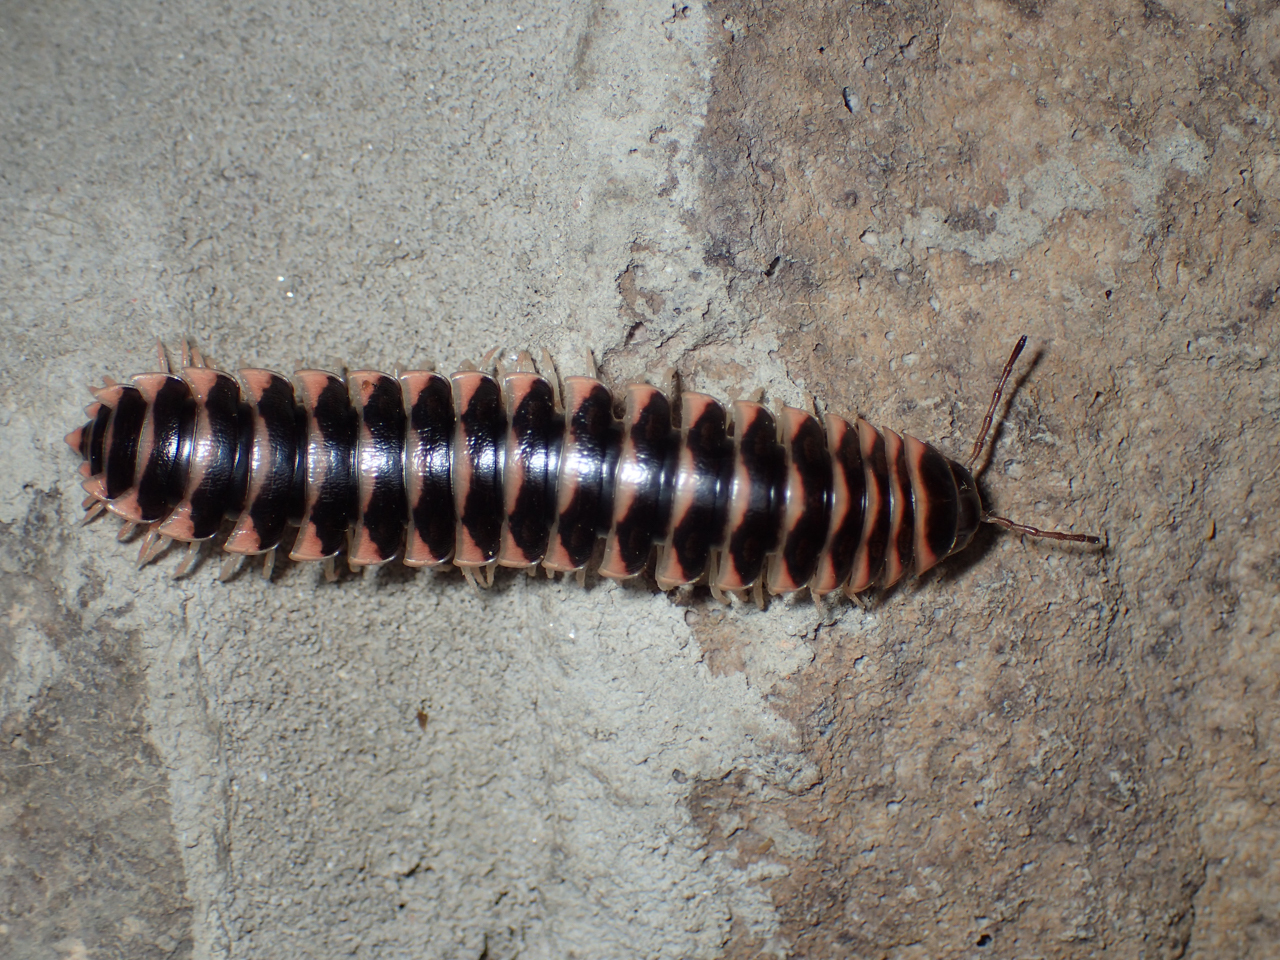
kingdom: Animalia
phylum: Arthropoda
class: Diplopoda
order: Polydesmida
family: Xystodesmidae
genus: Cherokia
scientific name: Cherokia georgiana
